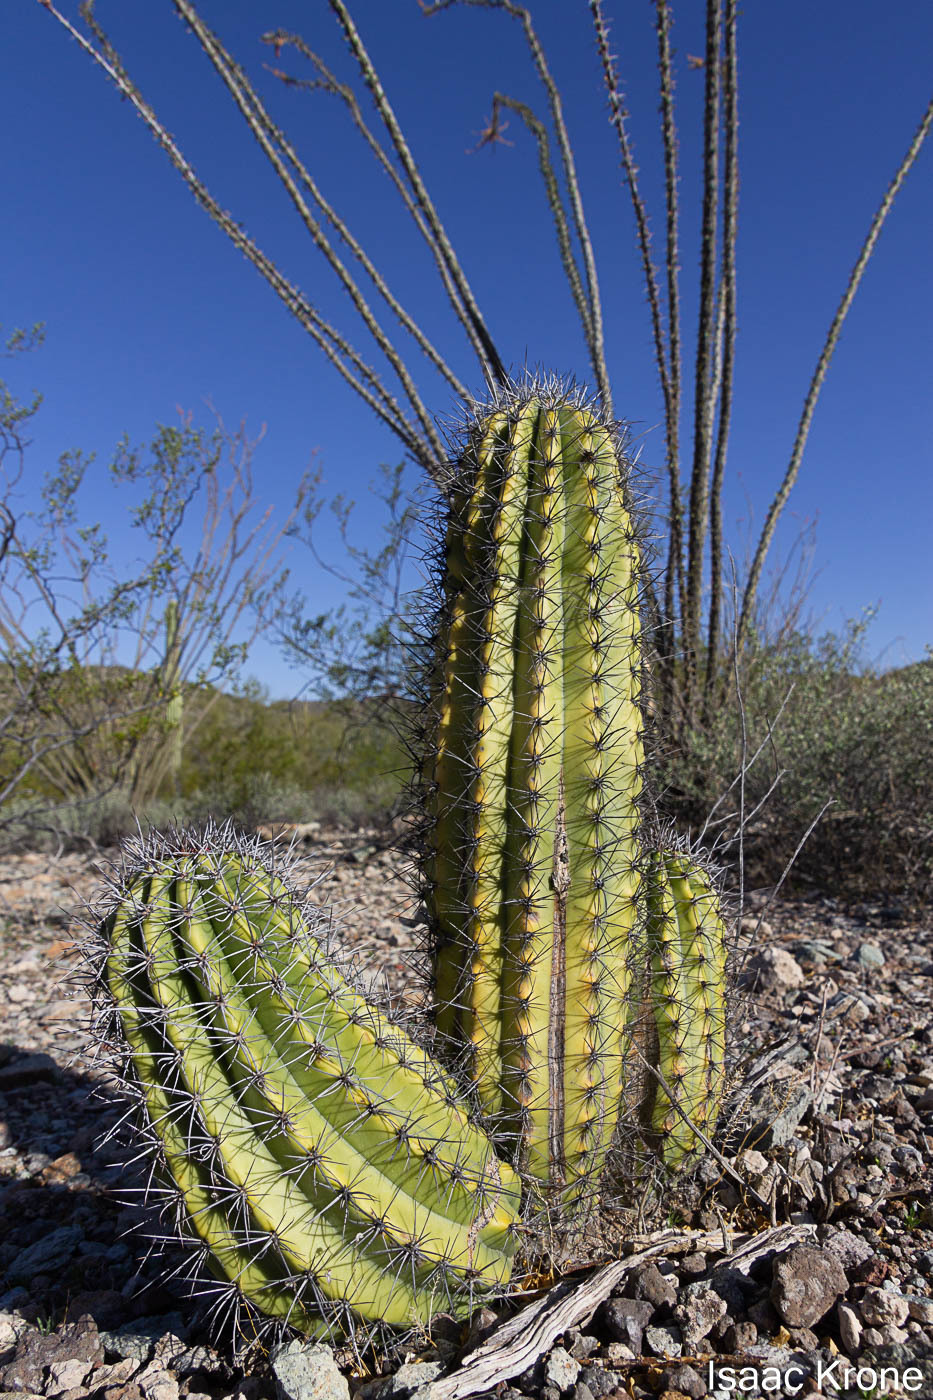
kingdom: Plantae
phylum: Tracheophyta
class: Magnoliopsida
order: Caryophyllales
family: Cactaceae
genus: Stenocereus
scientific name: Stenocereus thurberi
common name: Organ pipe cactus
